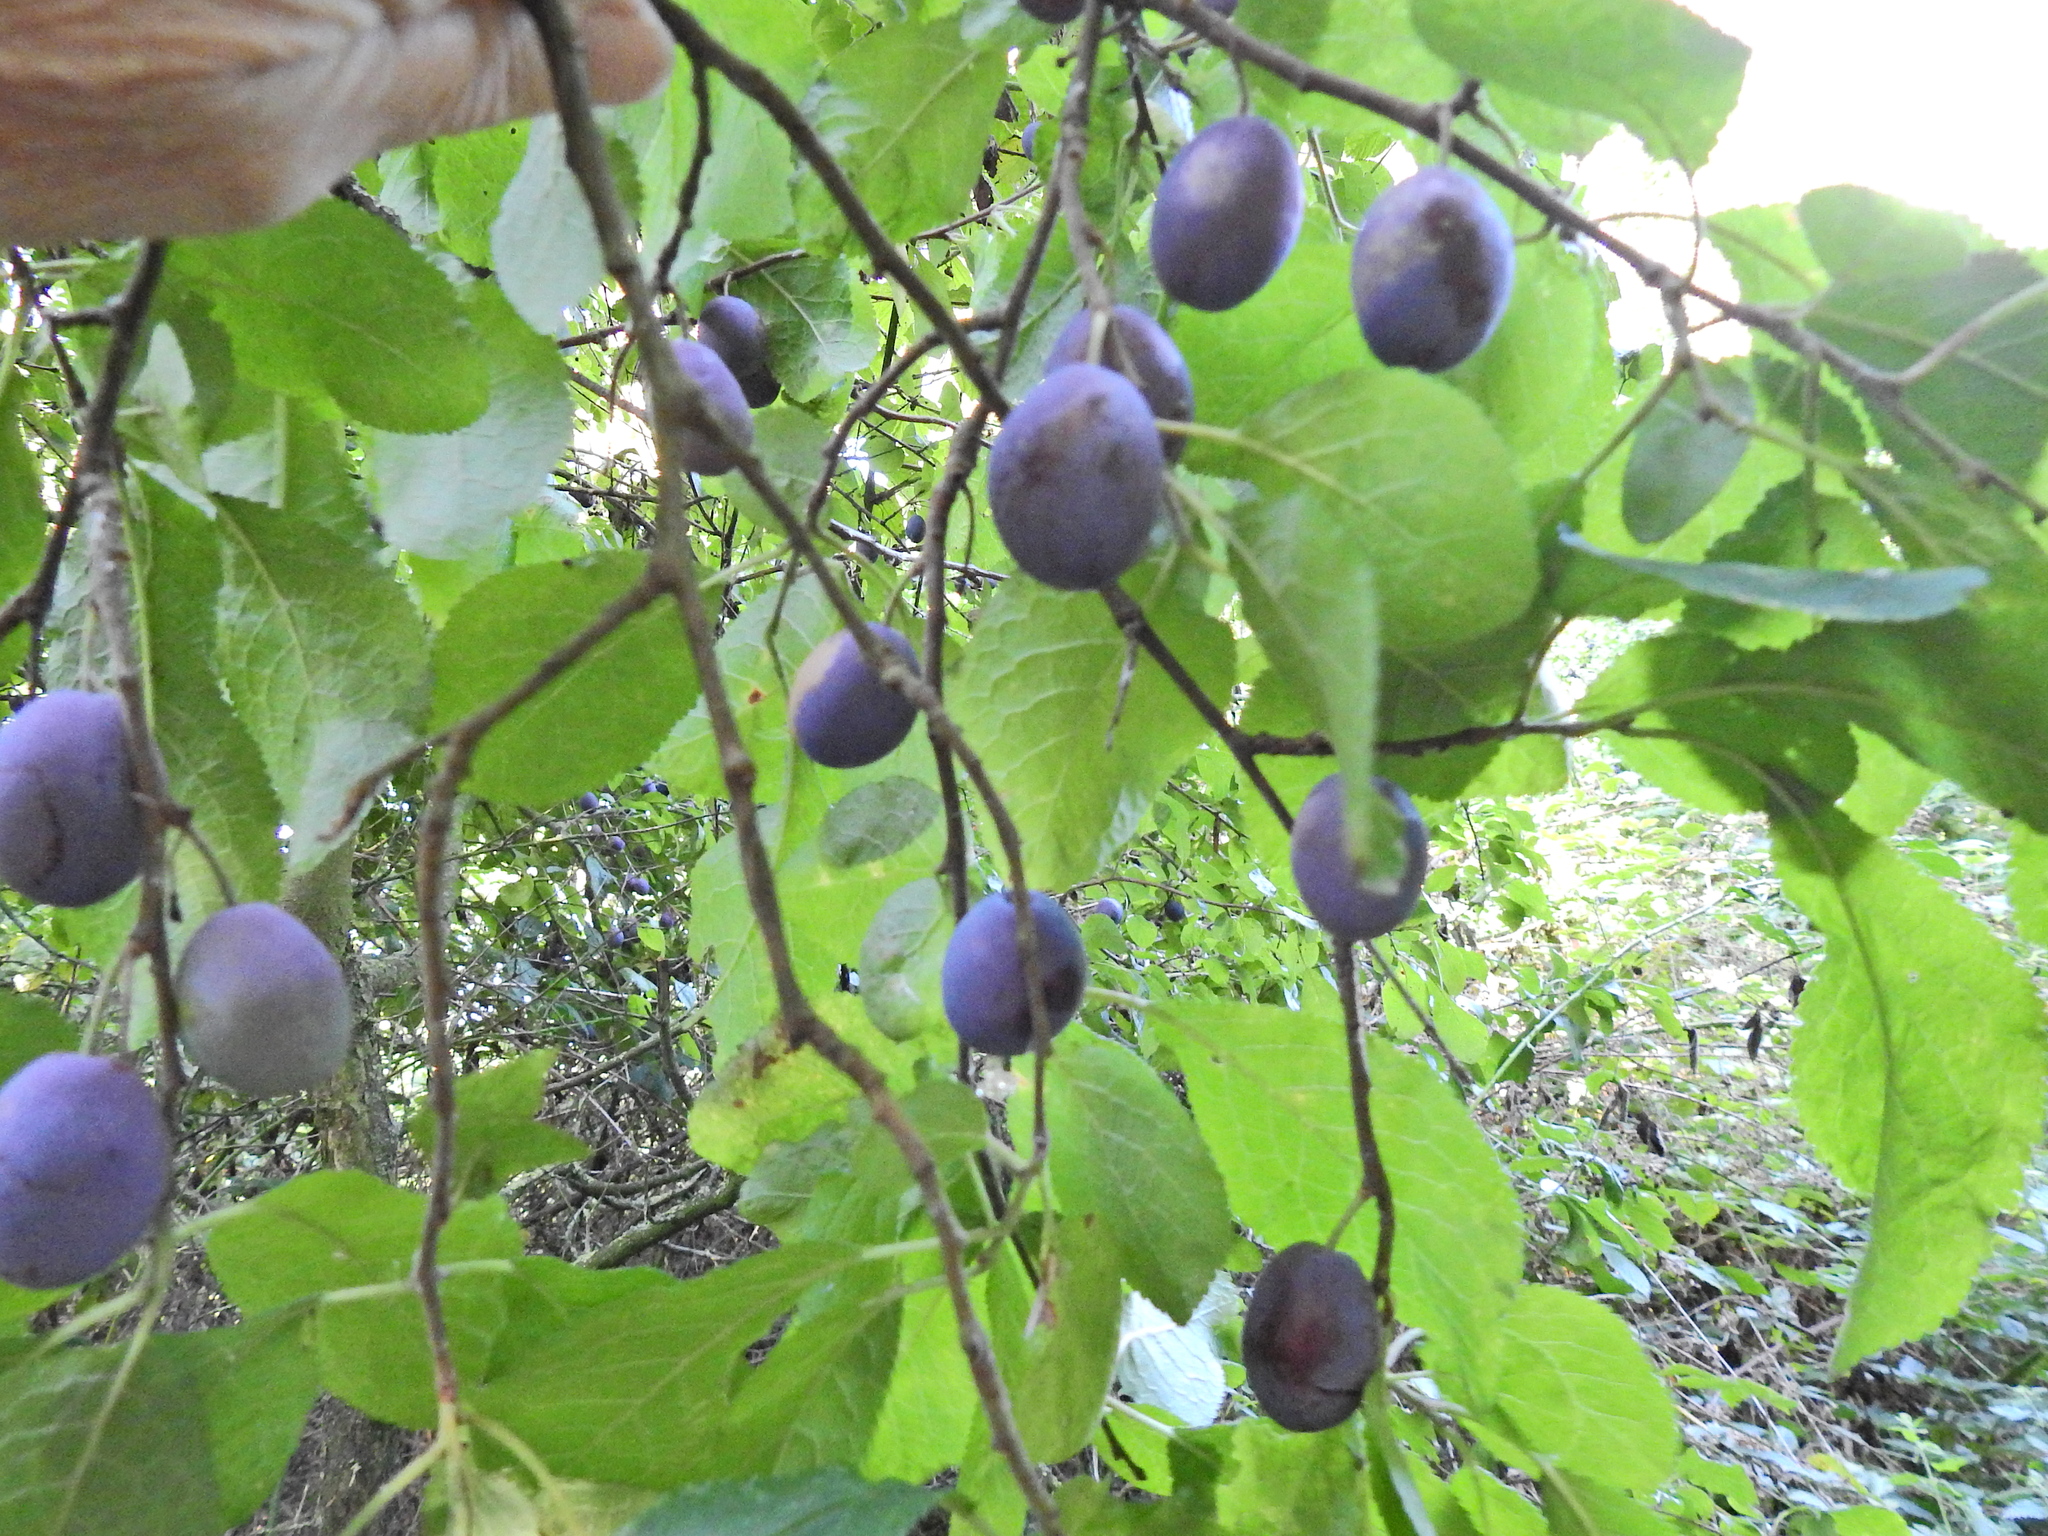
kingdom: Plantae
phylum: Tracheophyta
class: Magnoliopsida
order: Rosales
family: Rosaceae
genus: Prunus
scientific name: Prunus
